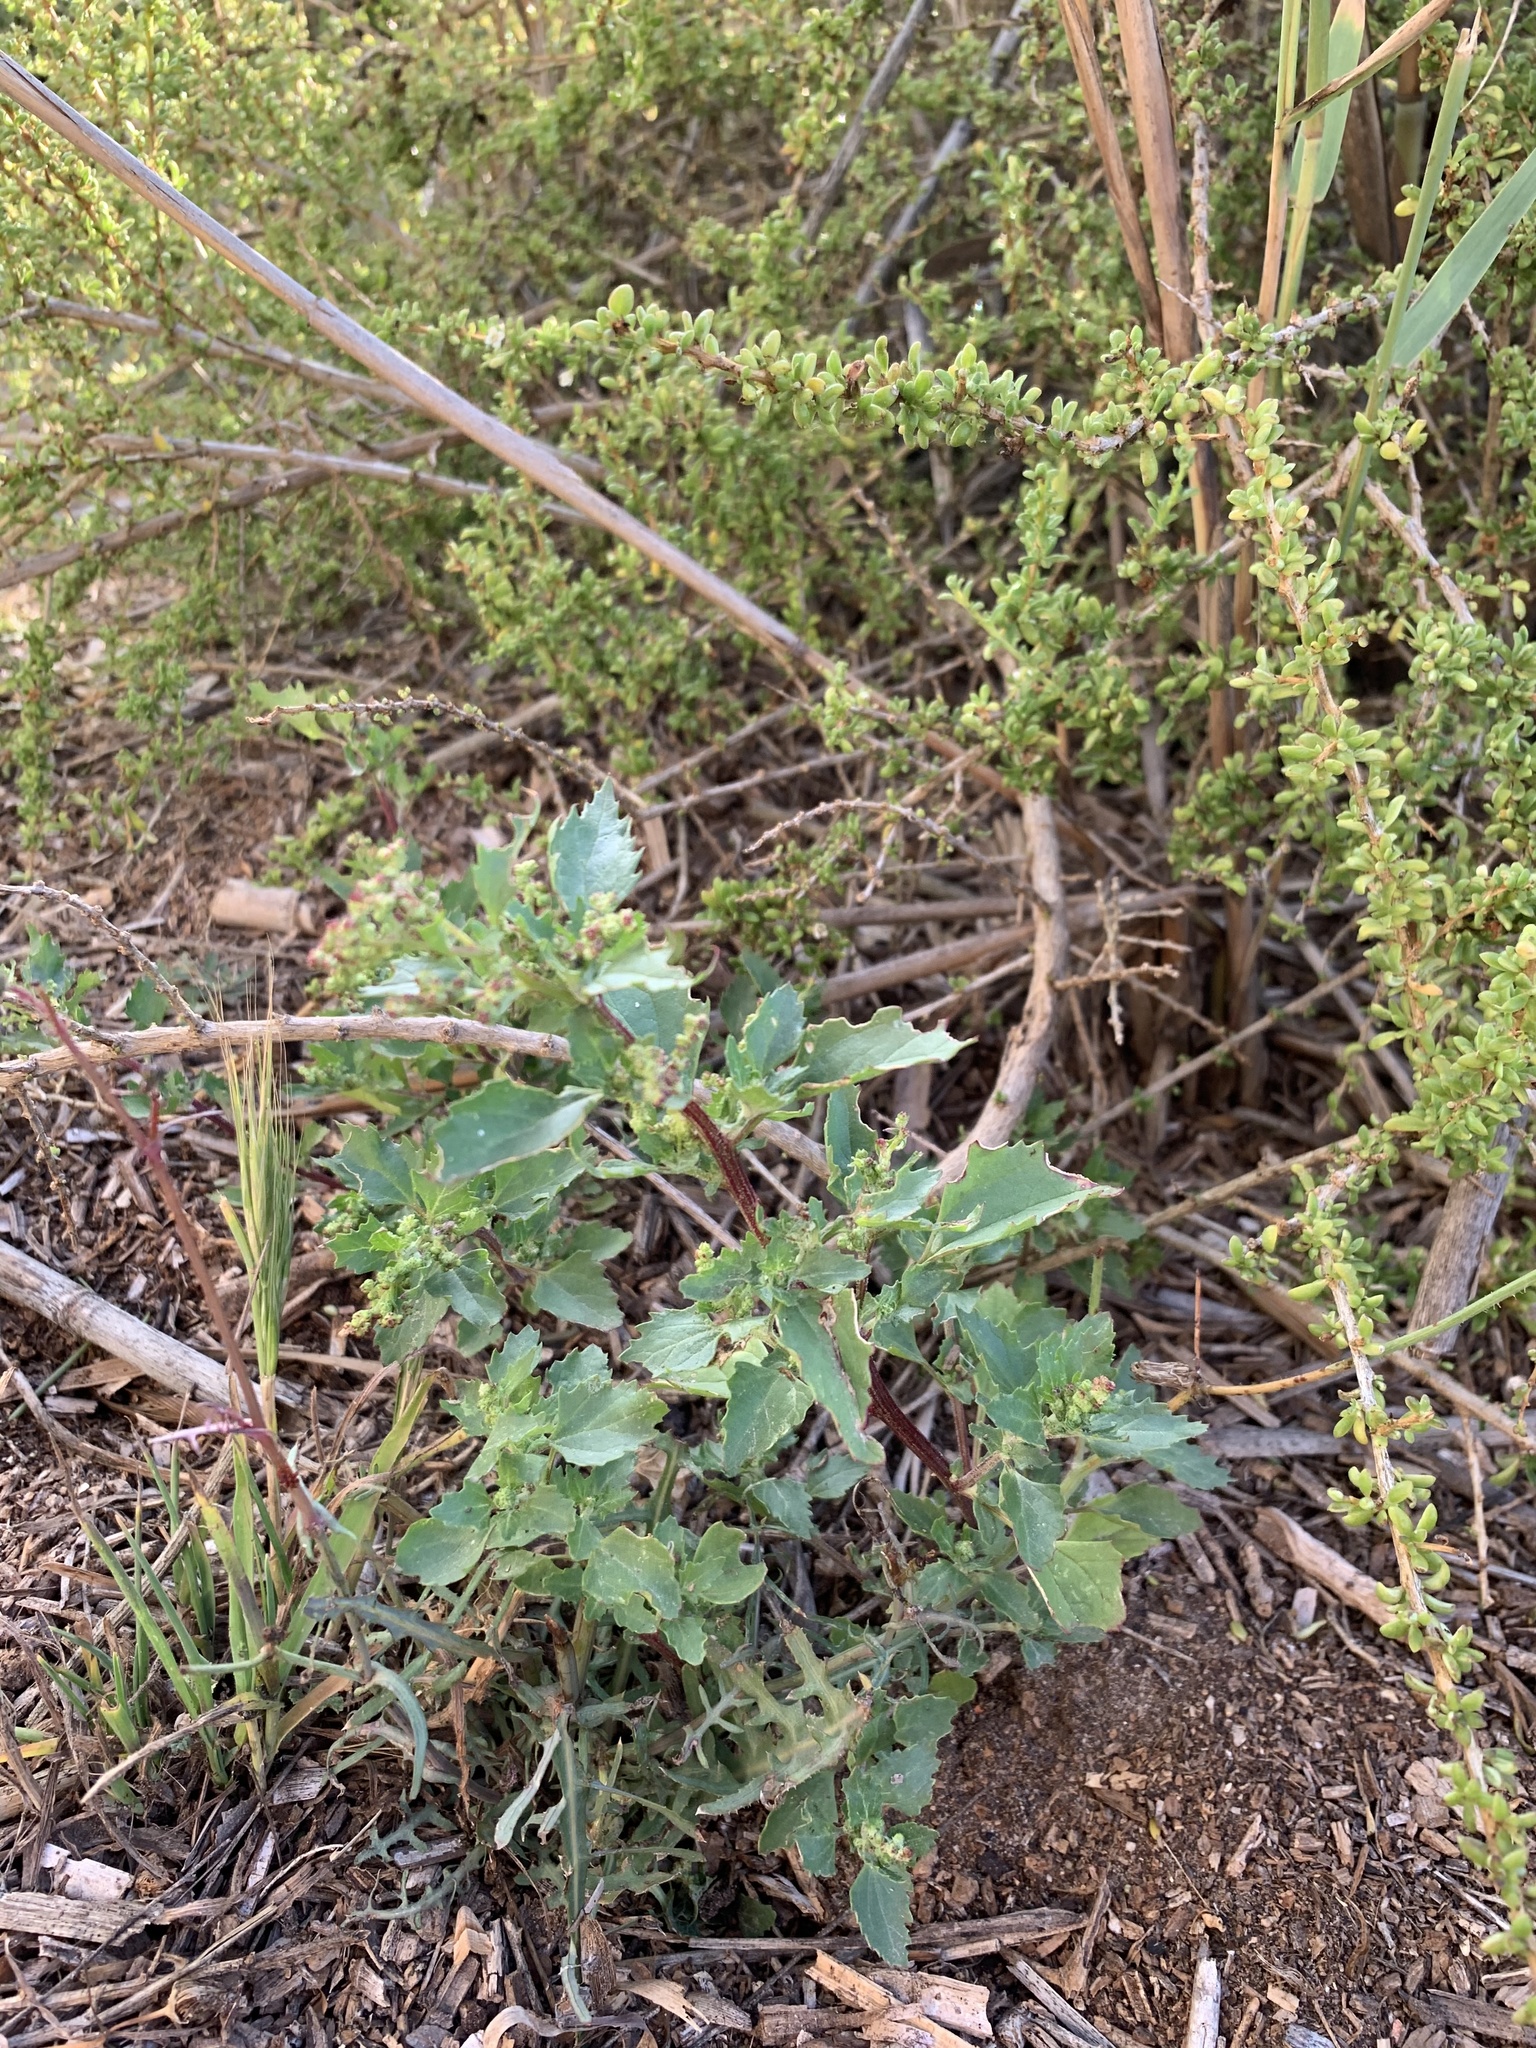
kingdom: Plantae
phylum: Tracheophyta
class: Magnoliopsida
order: Caryophyllales
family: Amaranthaceae
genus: Chenopodiastrum
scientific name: Chenopodiastrum murale
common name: Sowbane
